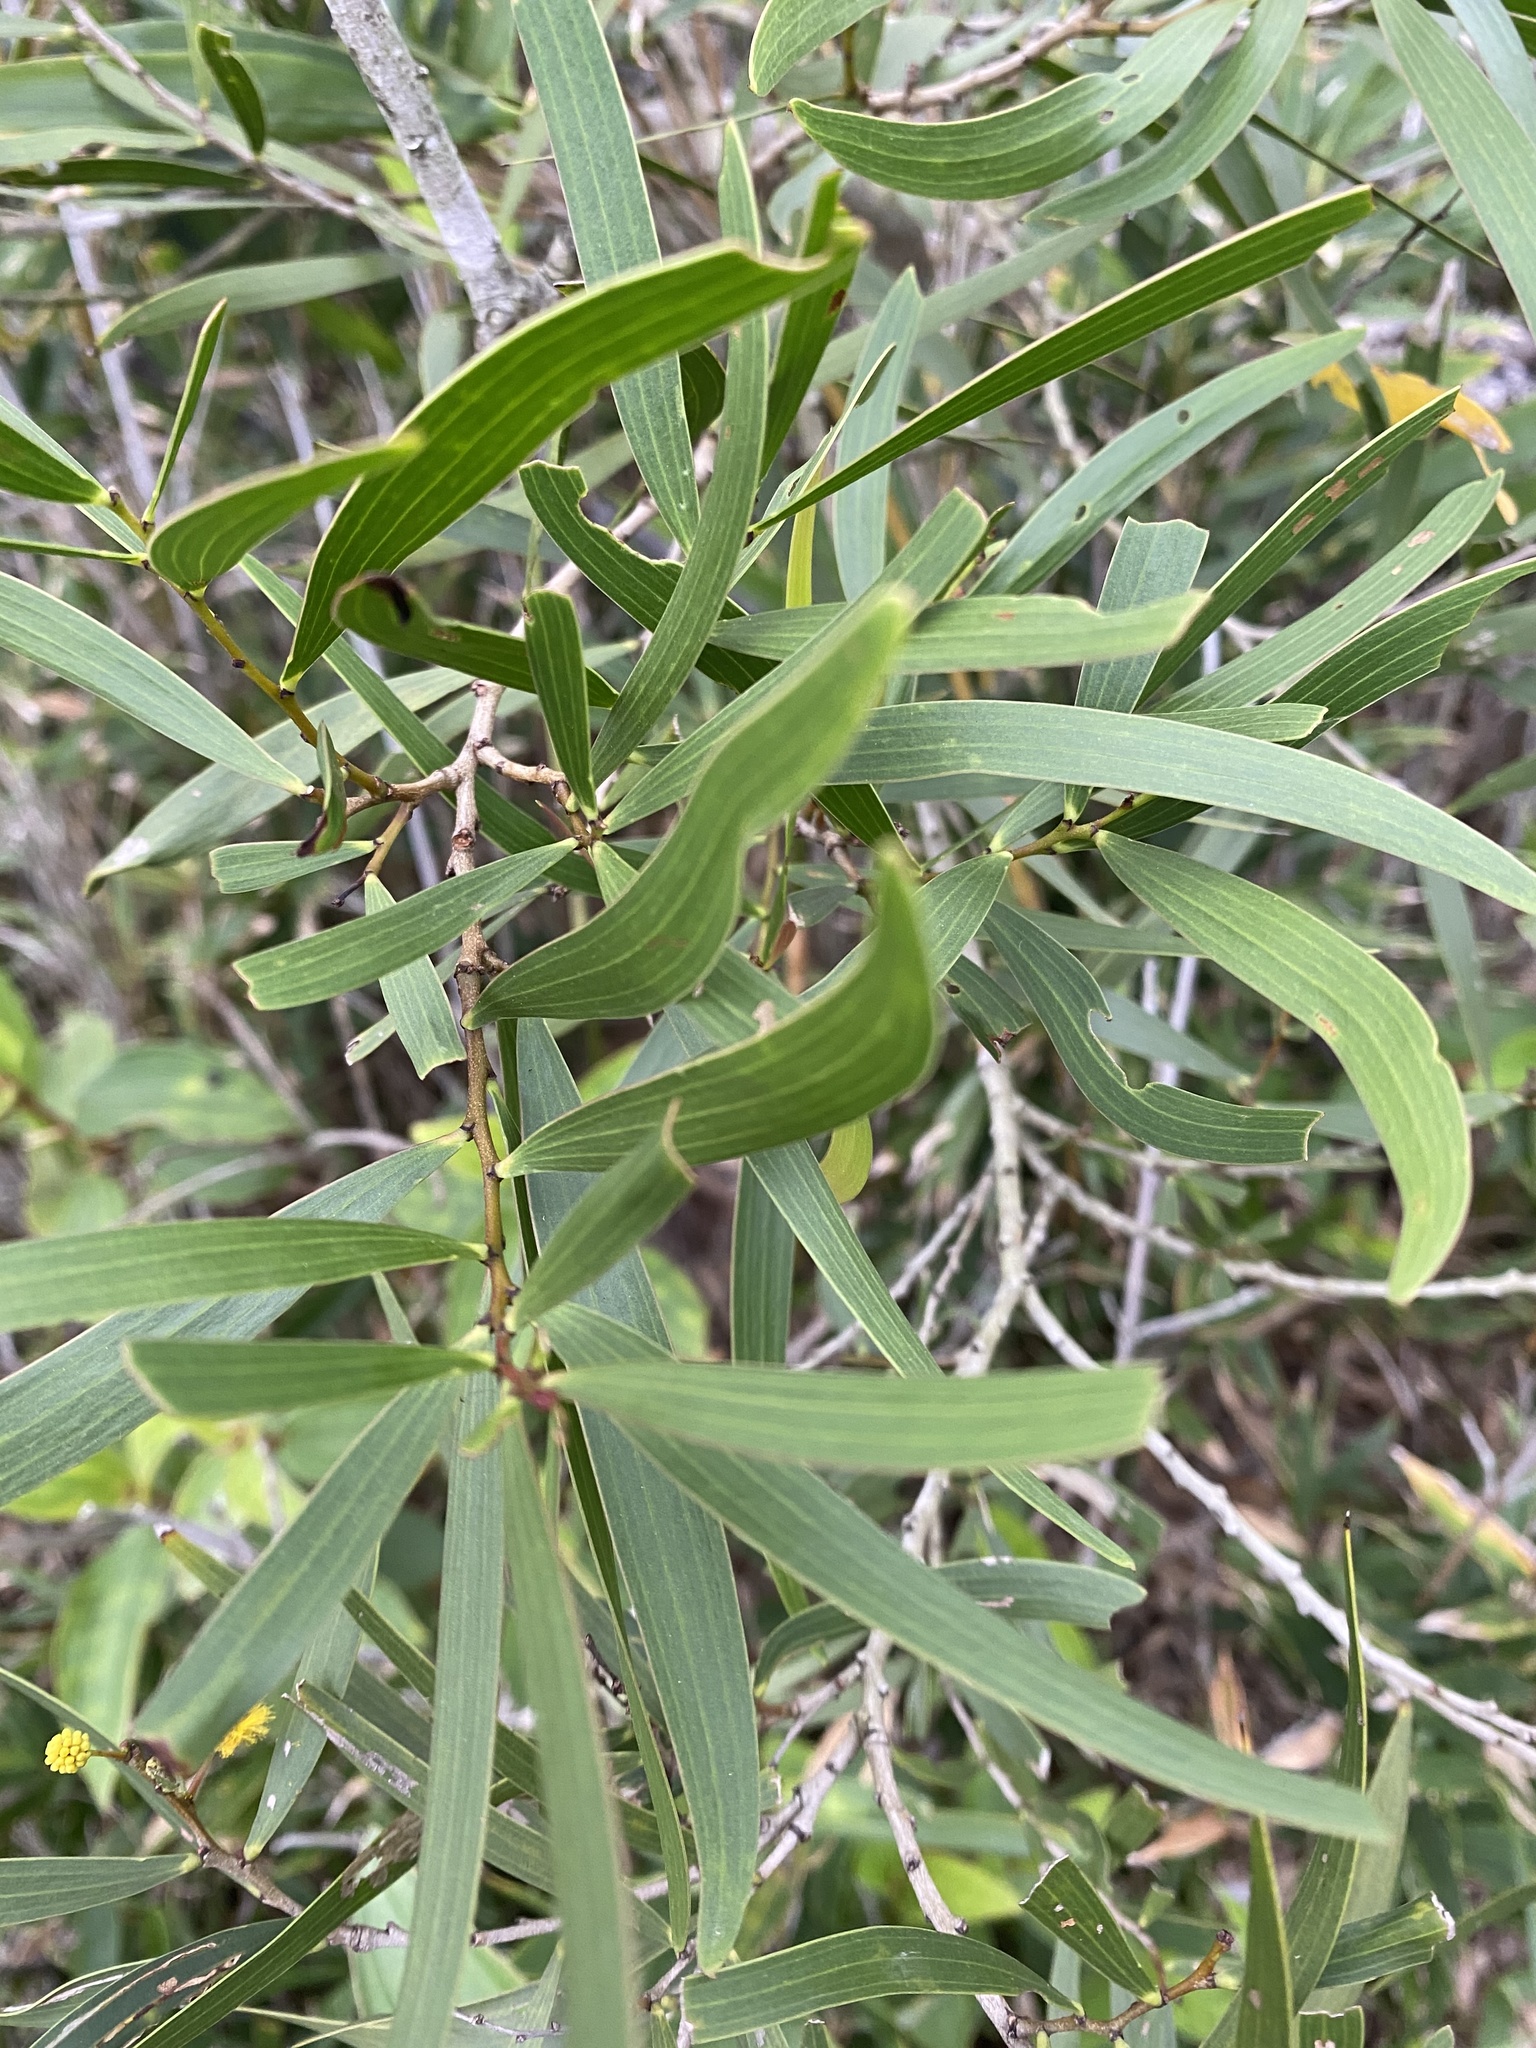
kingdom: Plantae
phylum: Tracheophyta
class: Magnoliopsida
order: Fabales
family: Fabaceae
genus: Acacia
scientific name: Acacia confusa
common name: Formosan koa
